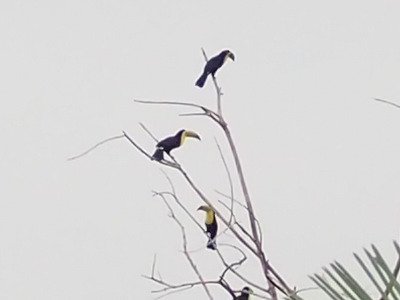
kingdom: Animalia
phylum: Chordata
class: Aves
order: Piciformes
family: Ramphastidae
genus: Ramphastos
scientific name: Ramphastos sulfuratus
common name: Keel-billed toucan
